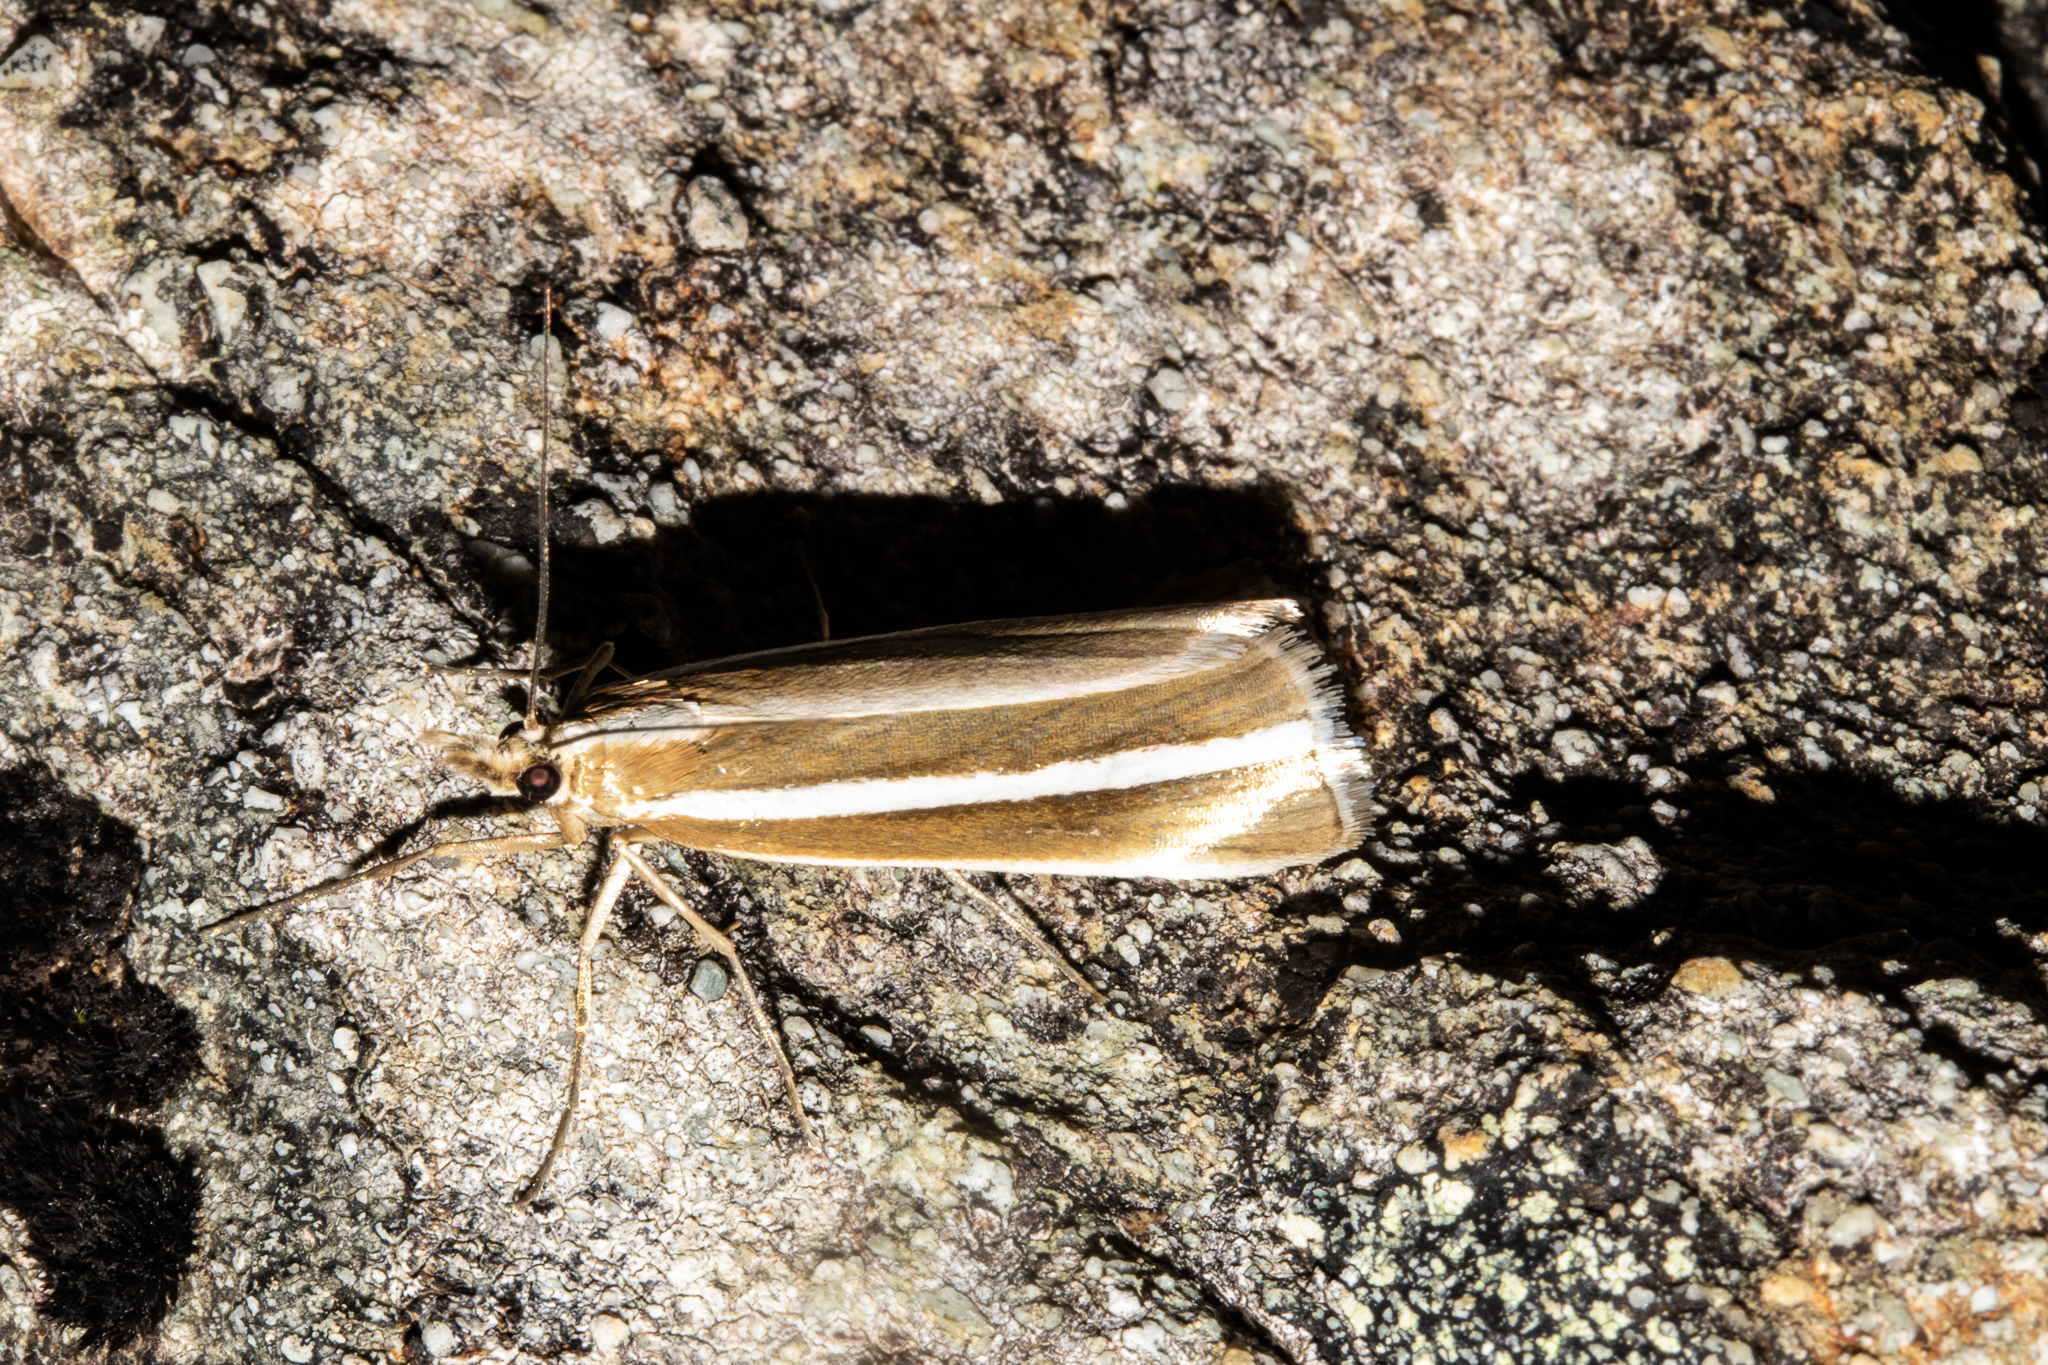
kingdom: Animalia
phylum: Arthropoda
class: Insecta
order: Lepidoptera
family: Crambidae
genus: Orocrambus
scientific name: Orocrambus philpotti
